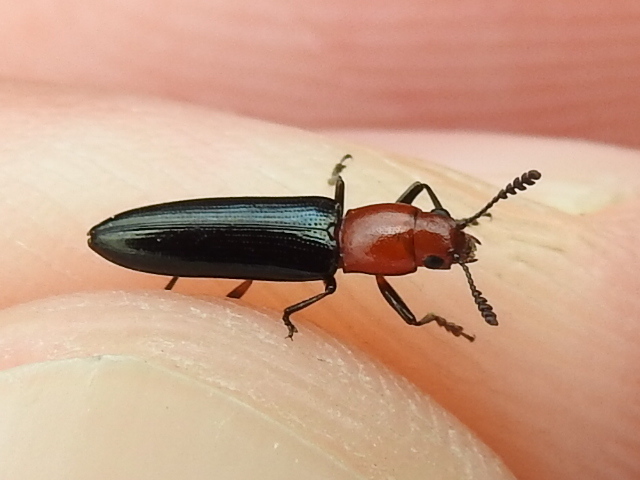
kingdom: Animalia
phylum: Arthropoda
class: Insecta
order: Coleoptera
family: Erotylidae
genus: Languria
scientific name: Languria laeta
